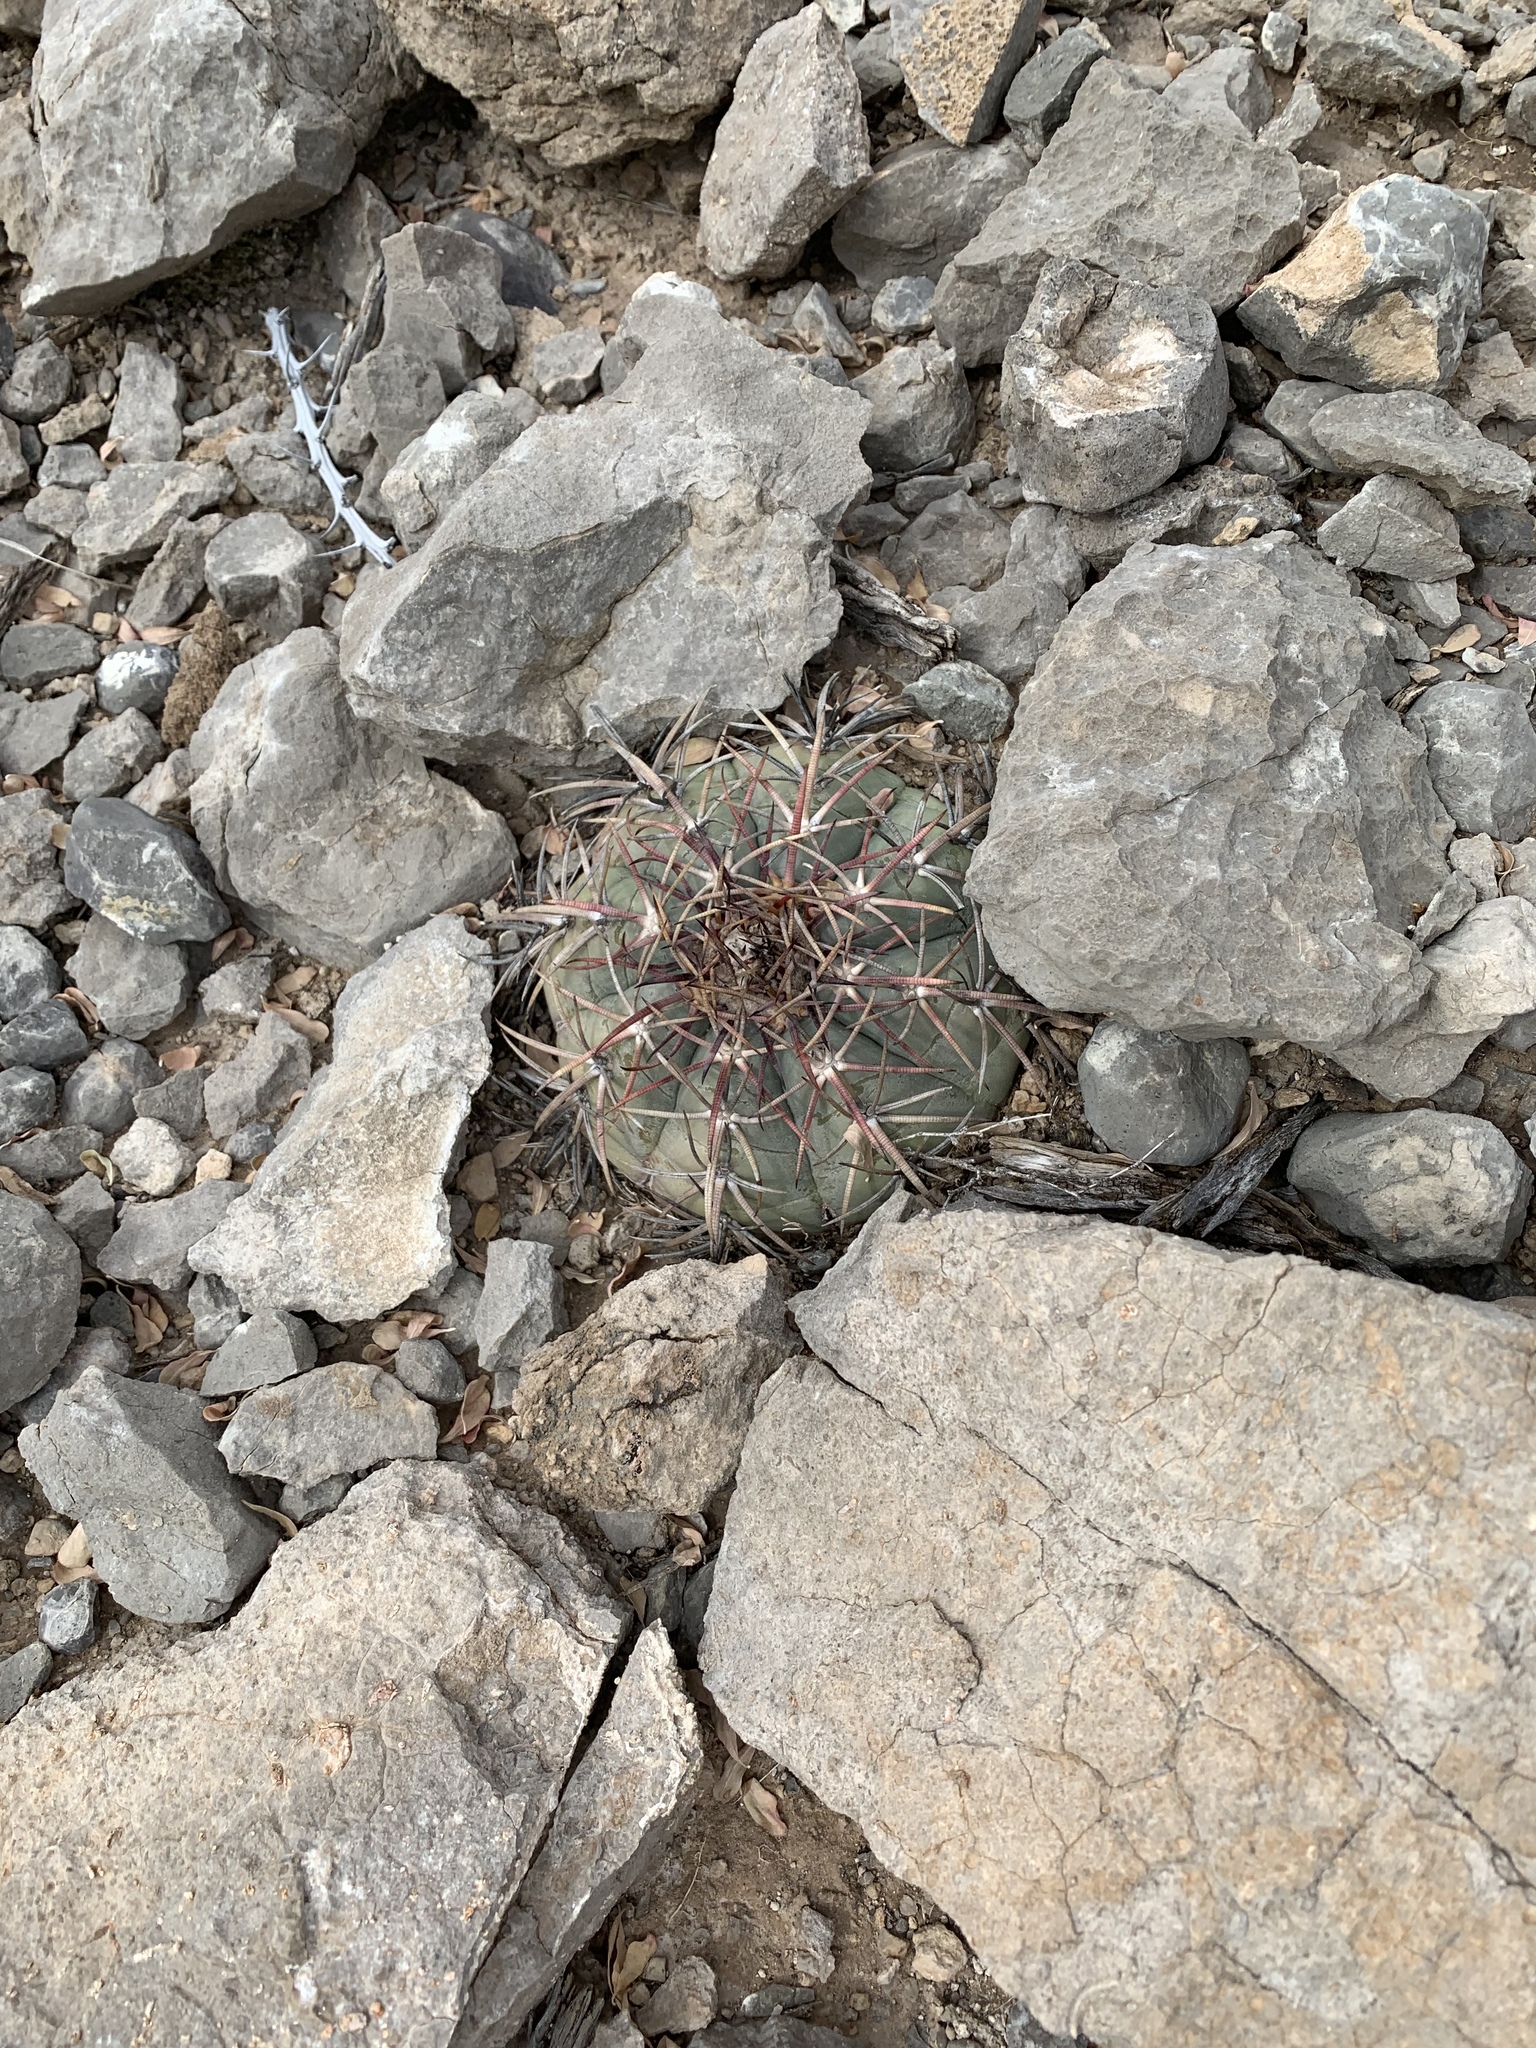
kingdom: Plantae
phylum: Tracheophyta
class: Magnoliopsida
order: Caryophyllales
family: Cactaceae
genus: Echinocactus
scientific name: Echinocactus horizonthalonius
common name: Devilshead
